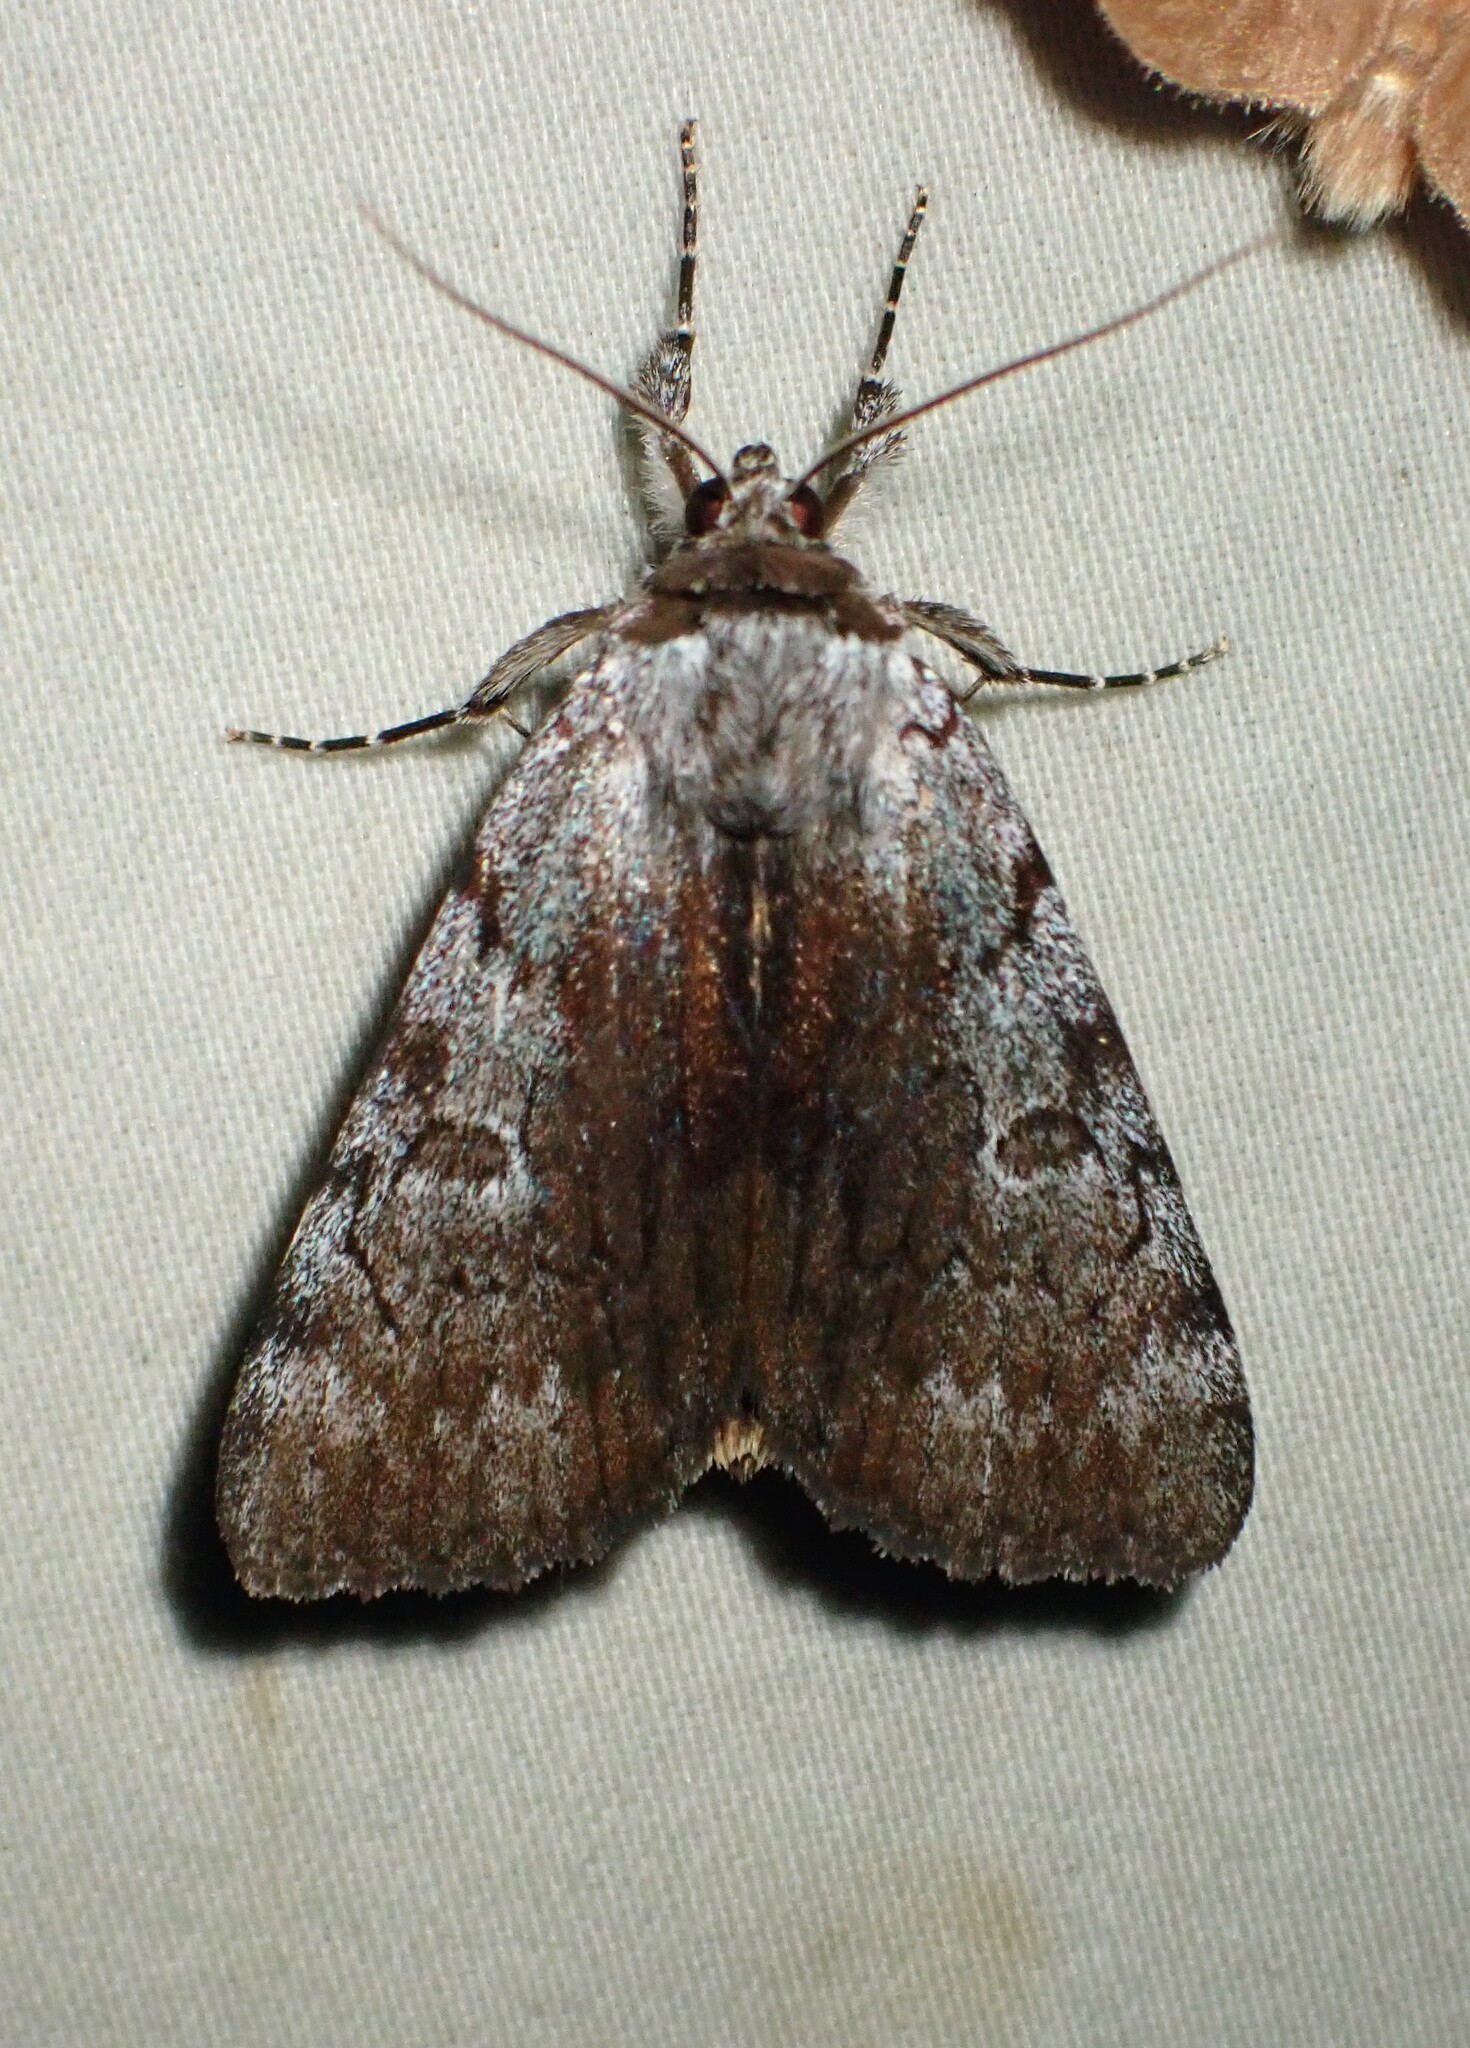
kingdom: Animalia
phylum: Arthropoda
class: Insecta
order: Lepidoptera
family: Erebidae
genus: Catocala
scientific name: Catocala sordida
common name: Sordid underwing
